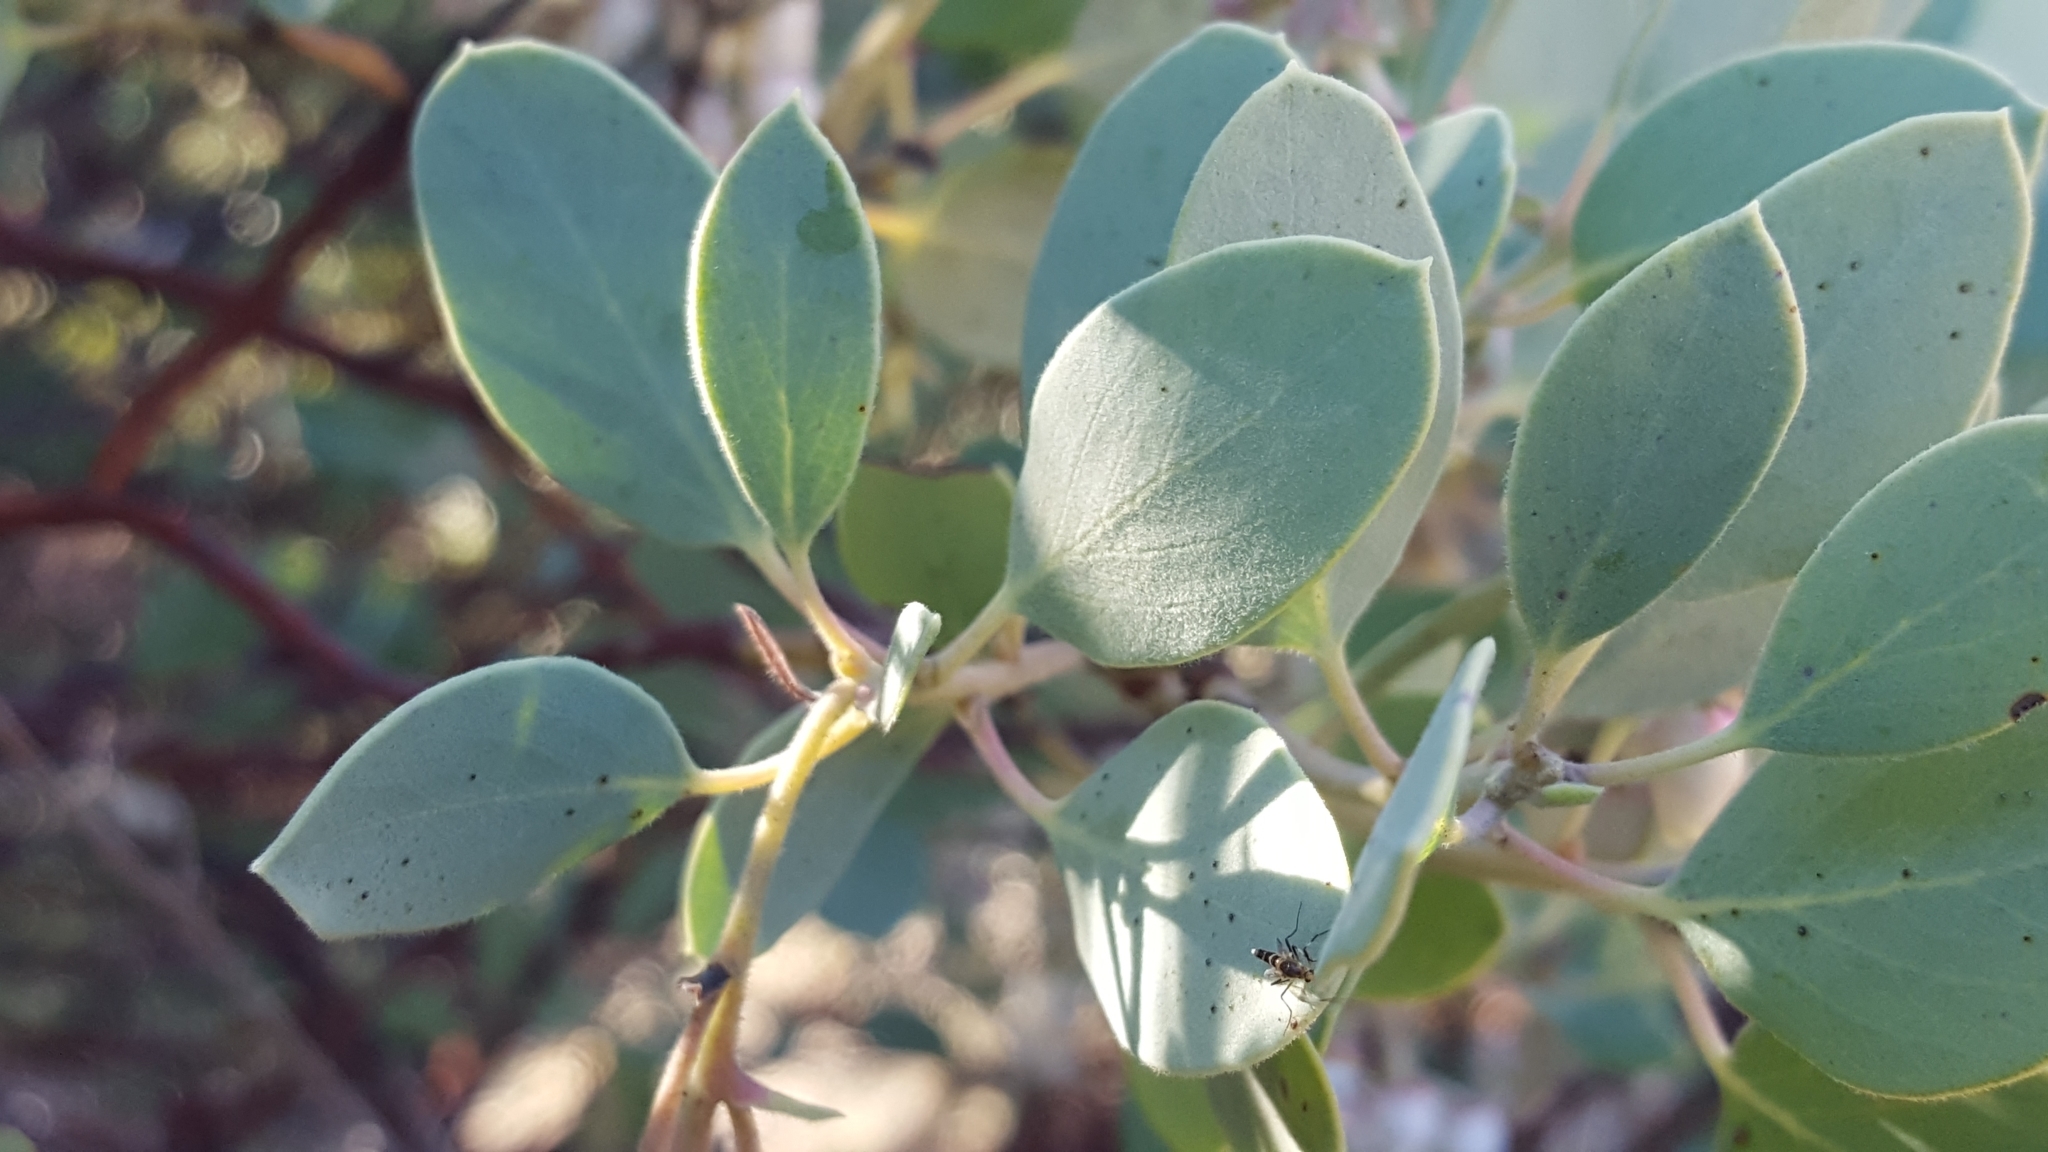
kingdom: Plantae
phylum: Tracheophyta
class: Magnoliopsida
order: Ericales
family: Ericaceae
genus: Arctostaphylos
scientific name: Arctostaphylos glauca
